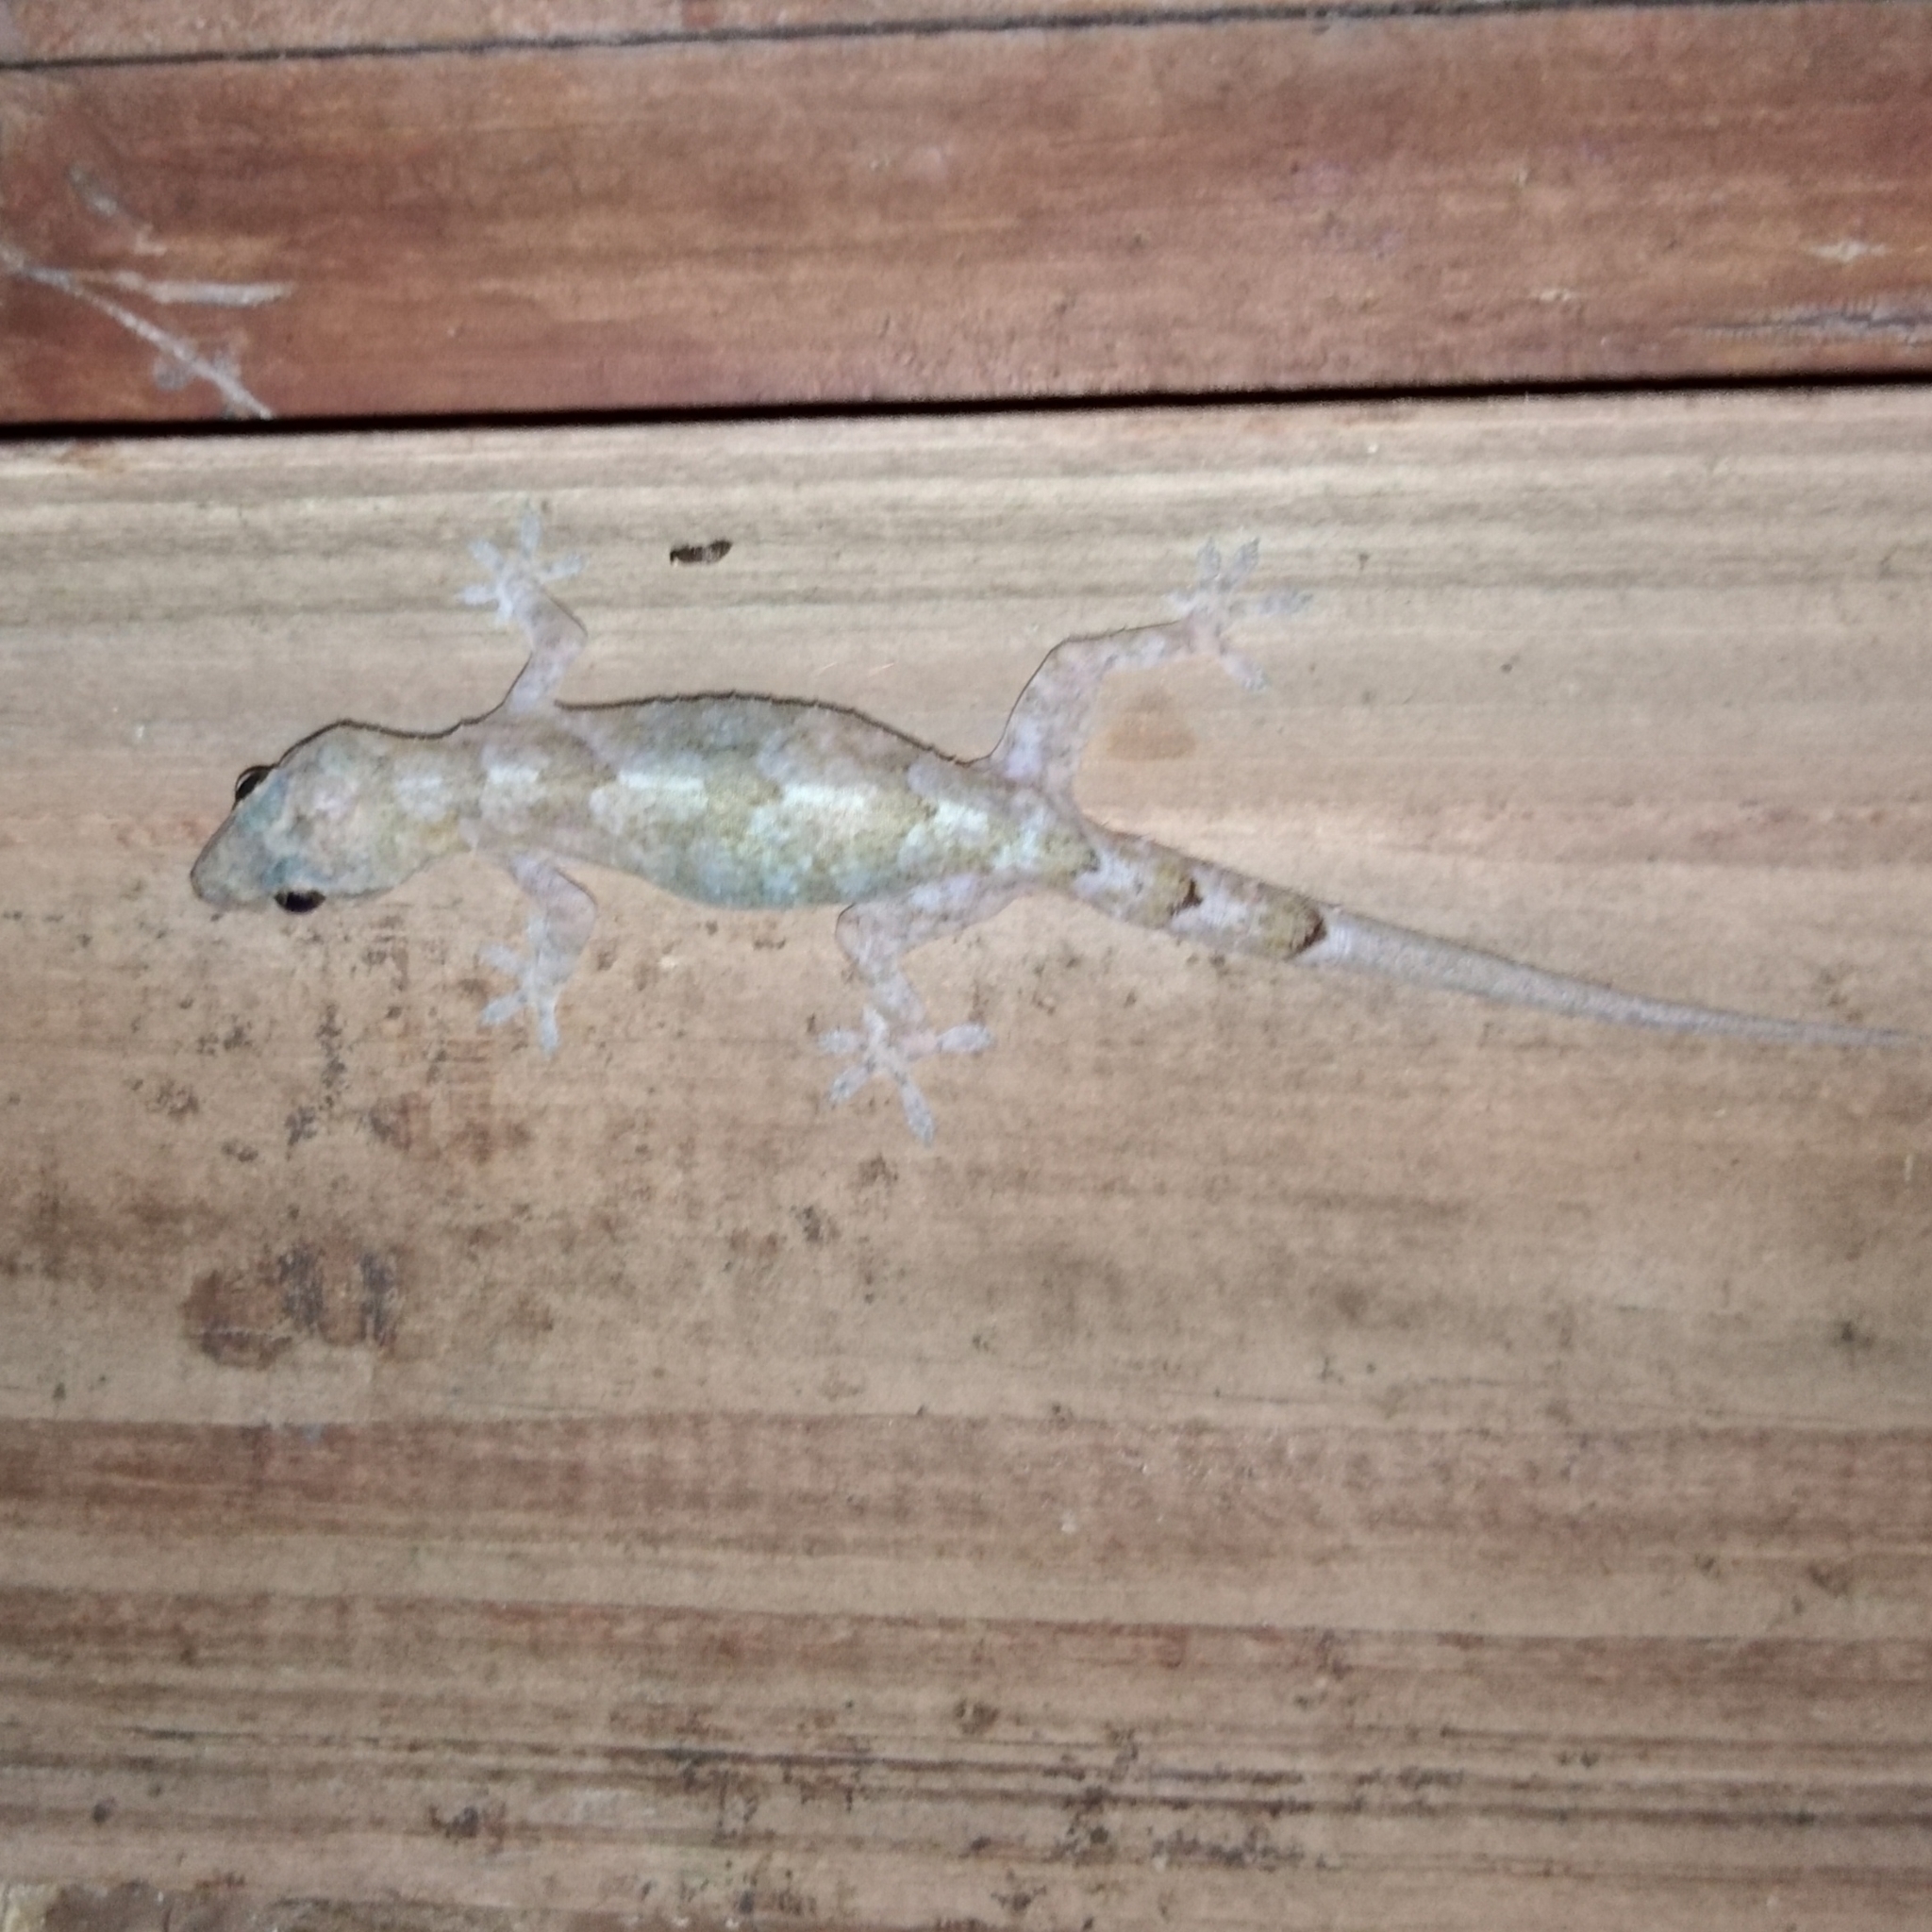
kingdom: Animalia
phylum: Chordata
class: Squamata
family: Gekkonidae
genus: Hemidactylus
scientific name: Hemidactylus mabouia
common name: House gecko
